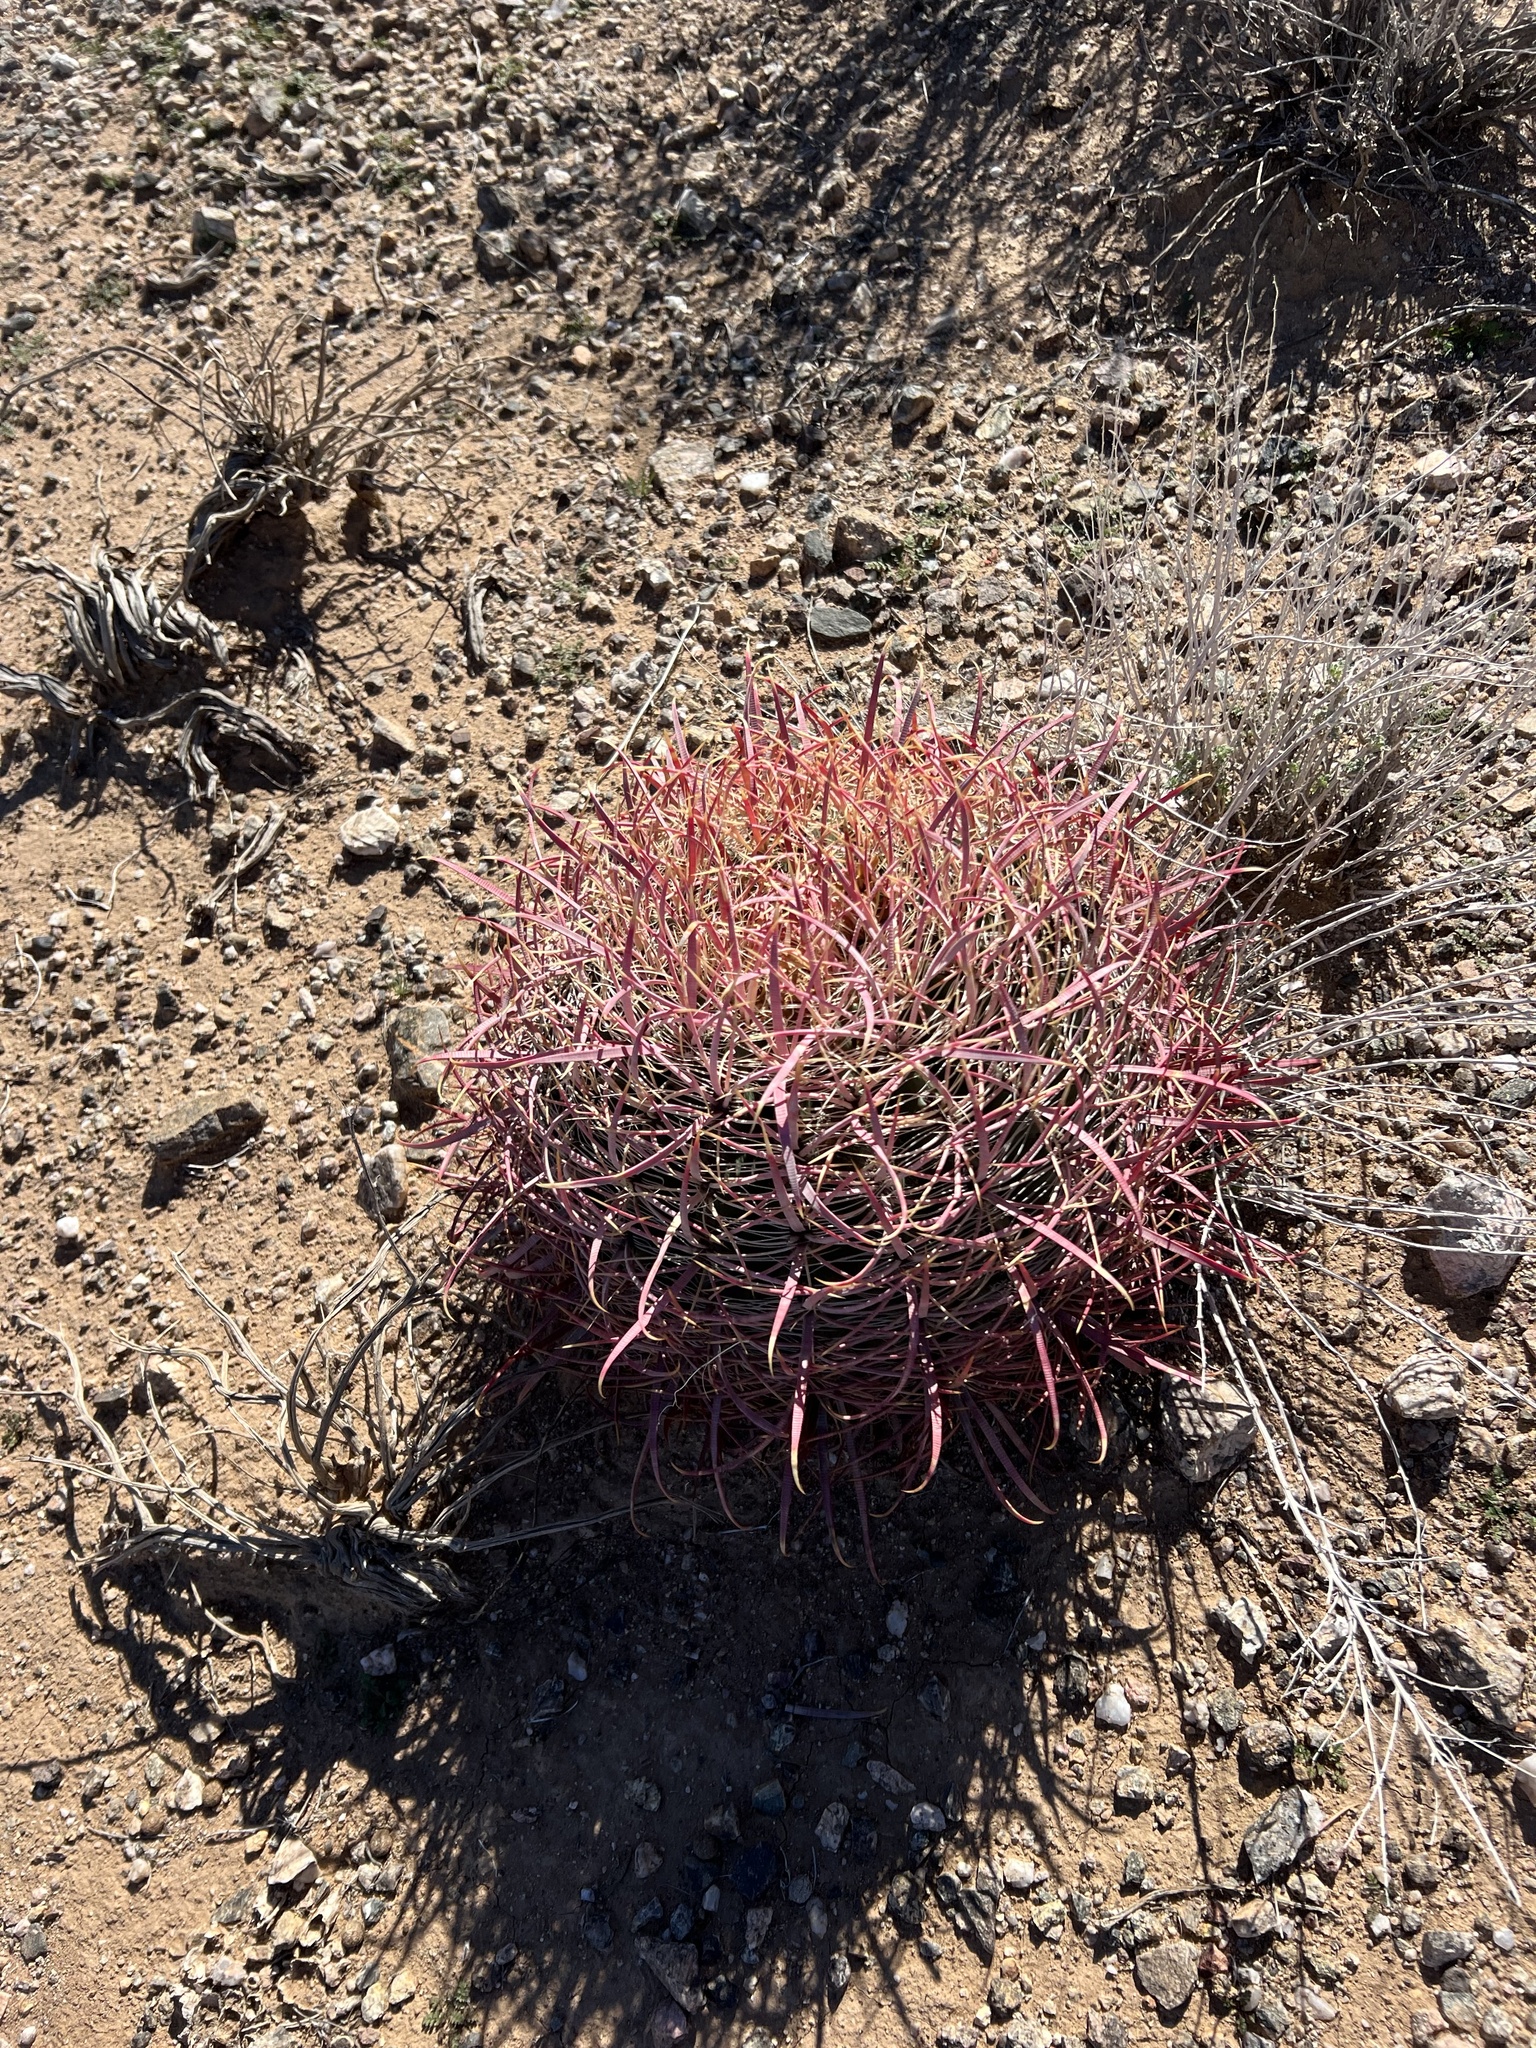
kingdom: Plantae
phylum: Tracheophyta
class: Magnoliopsida
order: Caryophyllales
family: Cactaceae
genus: Ferocactus
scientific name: Ferocactus cylindraceus
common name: California barrel cactus
